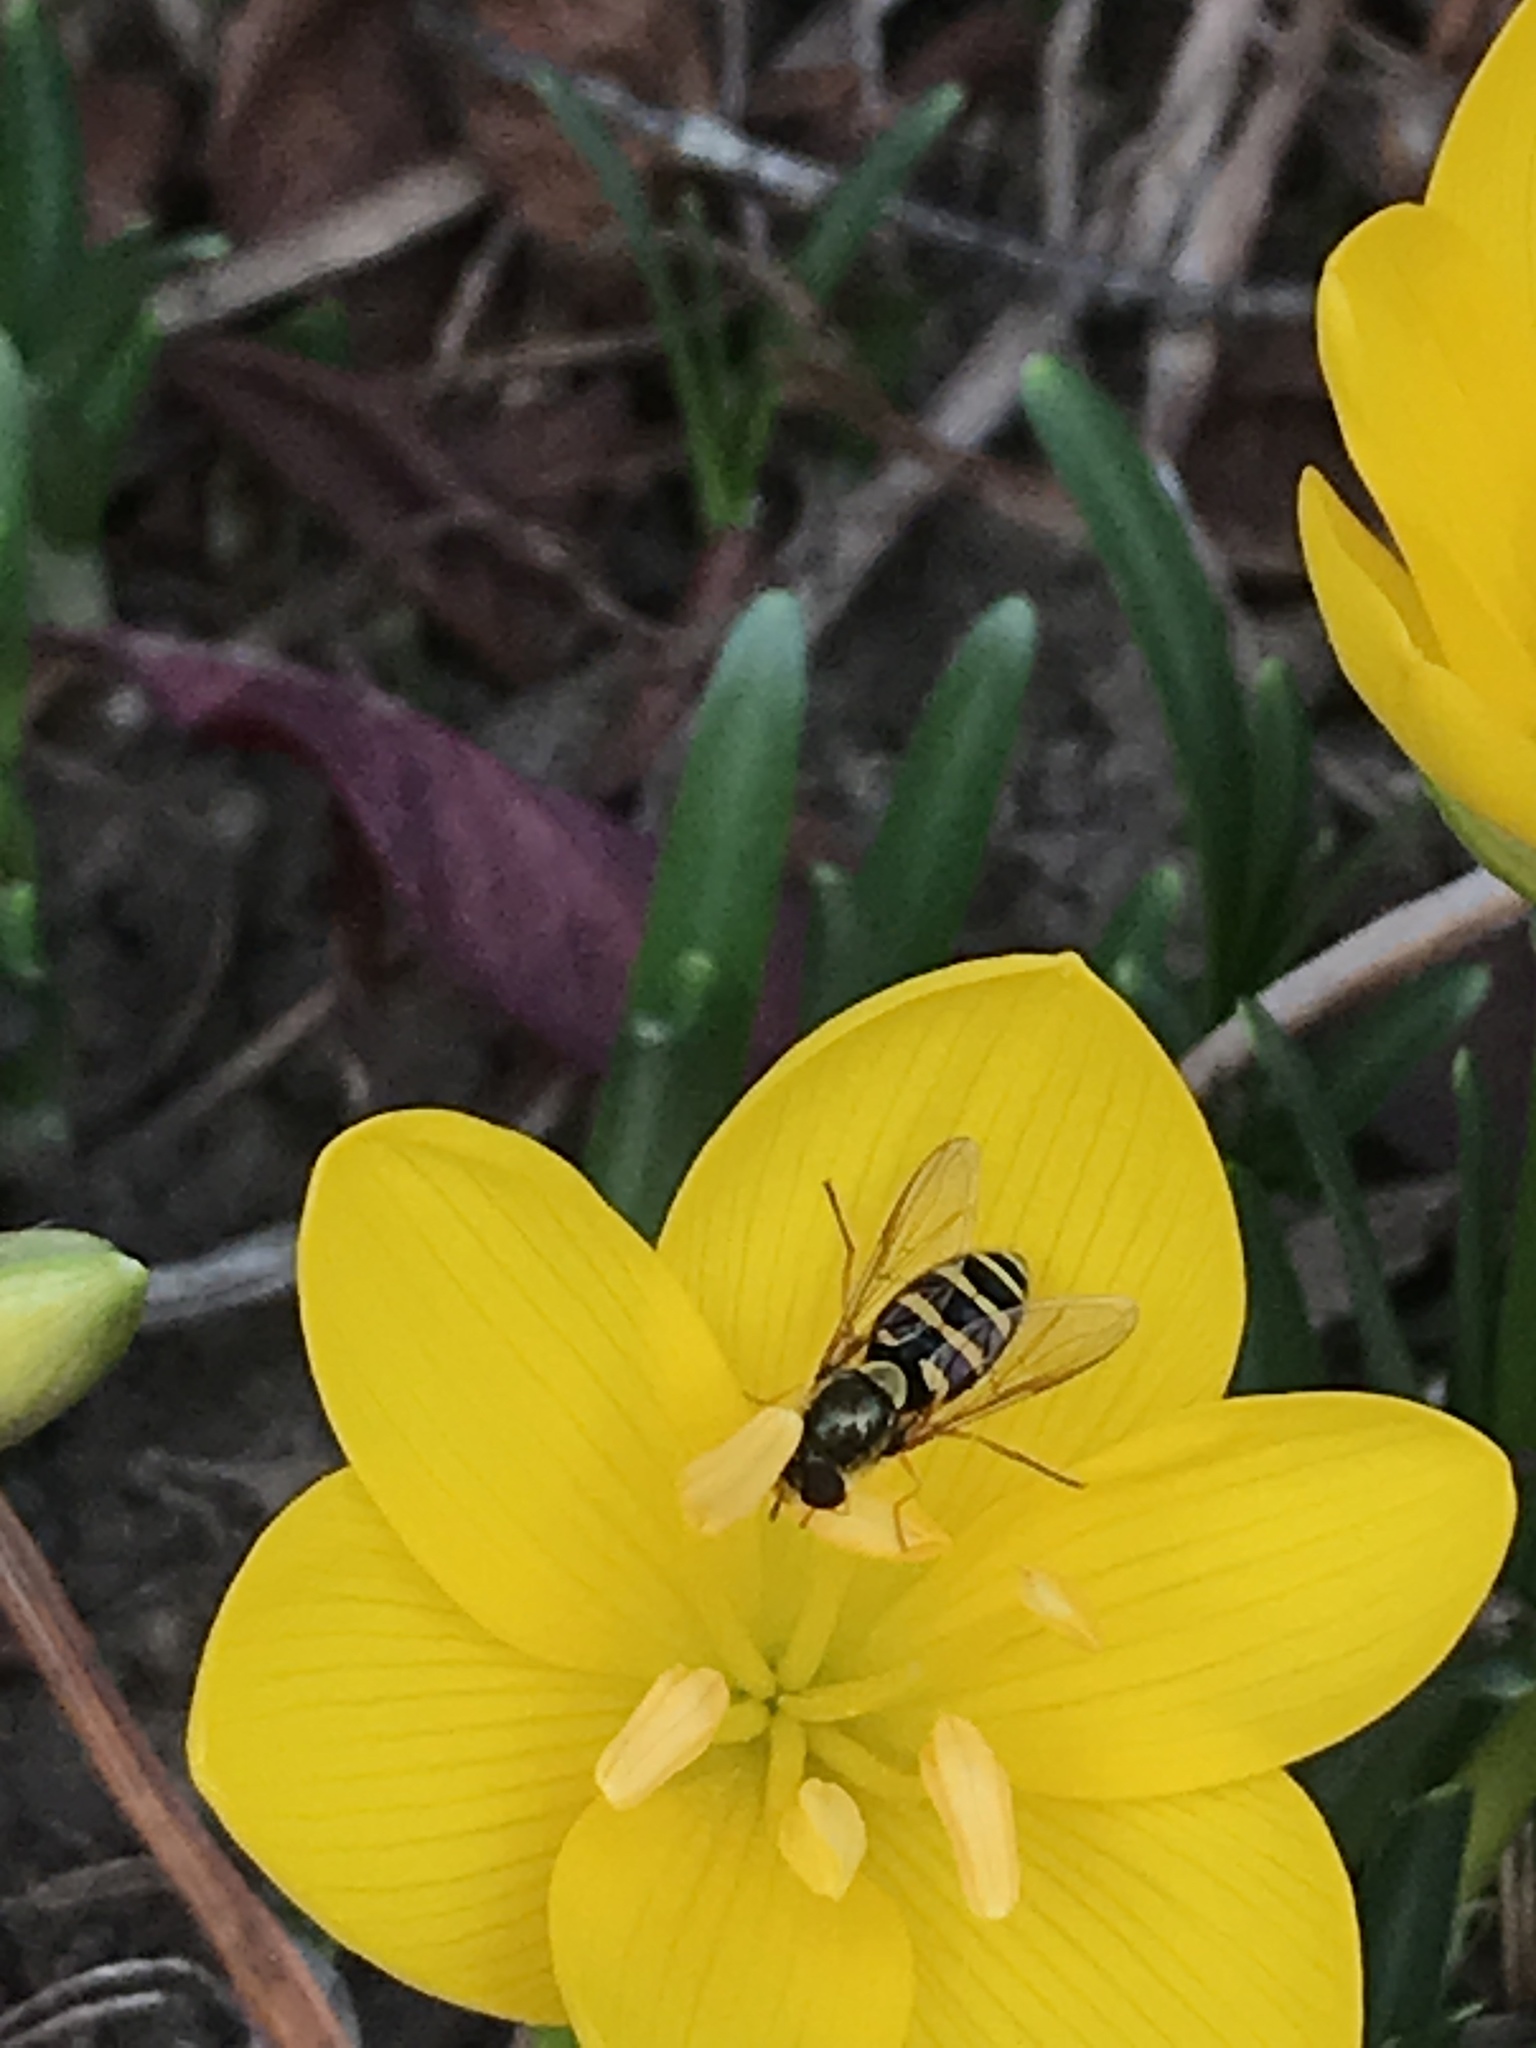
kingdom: Animalia
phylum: Arthropoda
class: Insecta
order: Diptera
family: Syrphidae
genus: Syrphus
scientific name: Syrphus opinator
